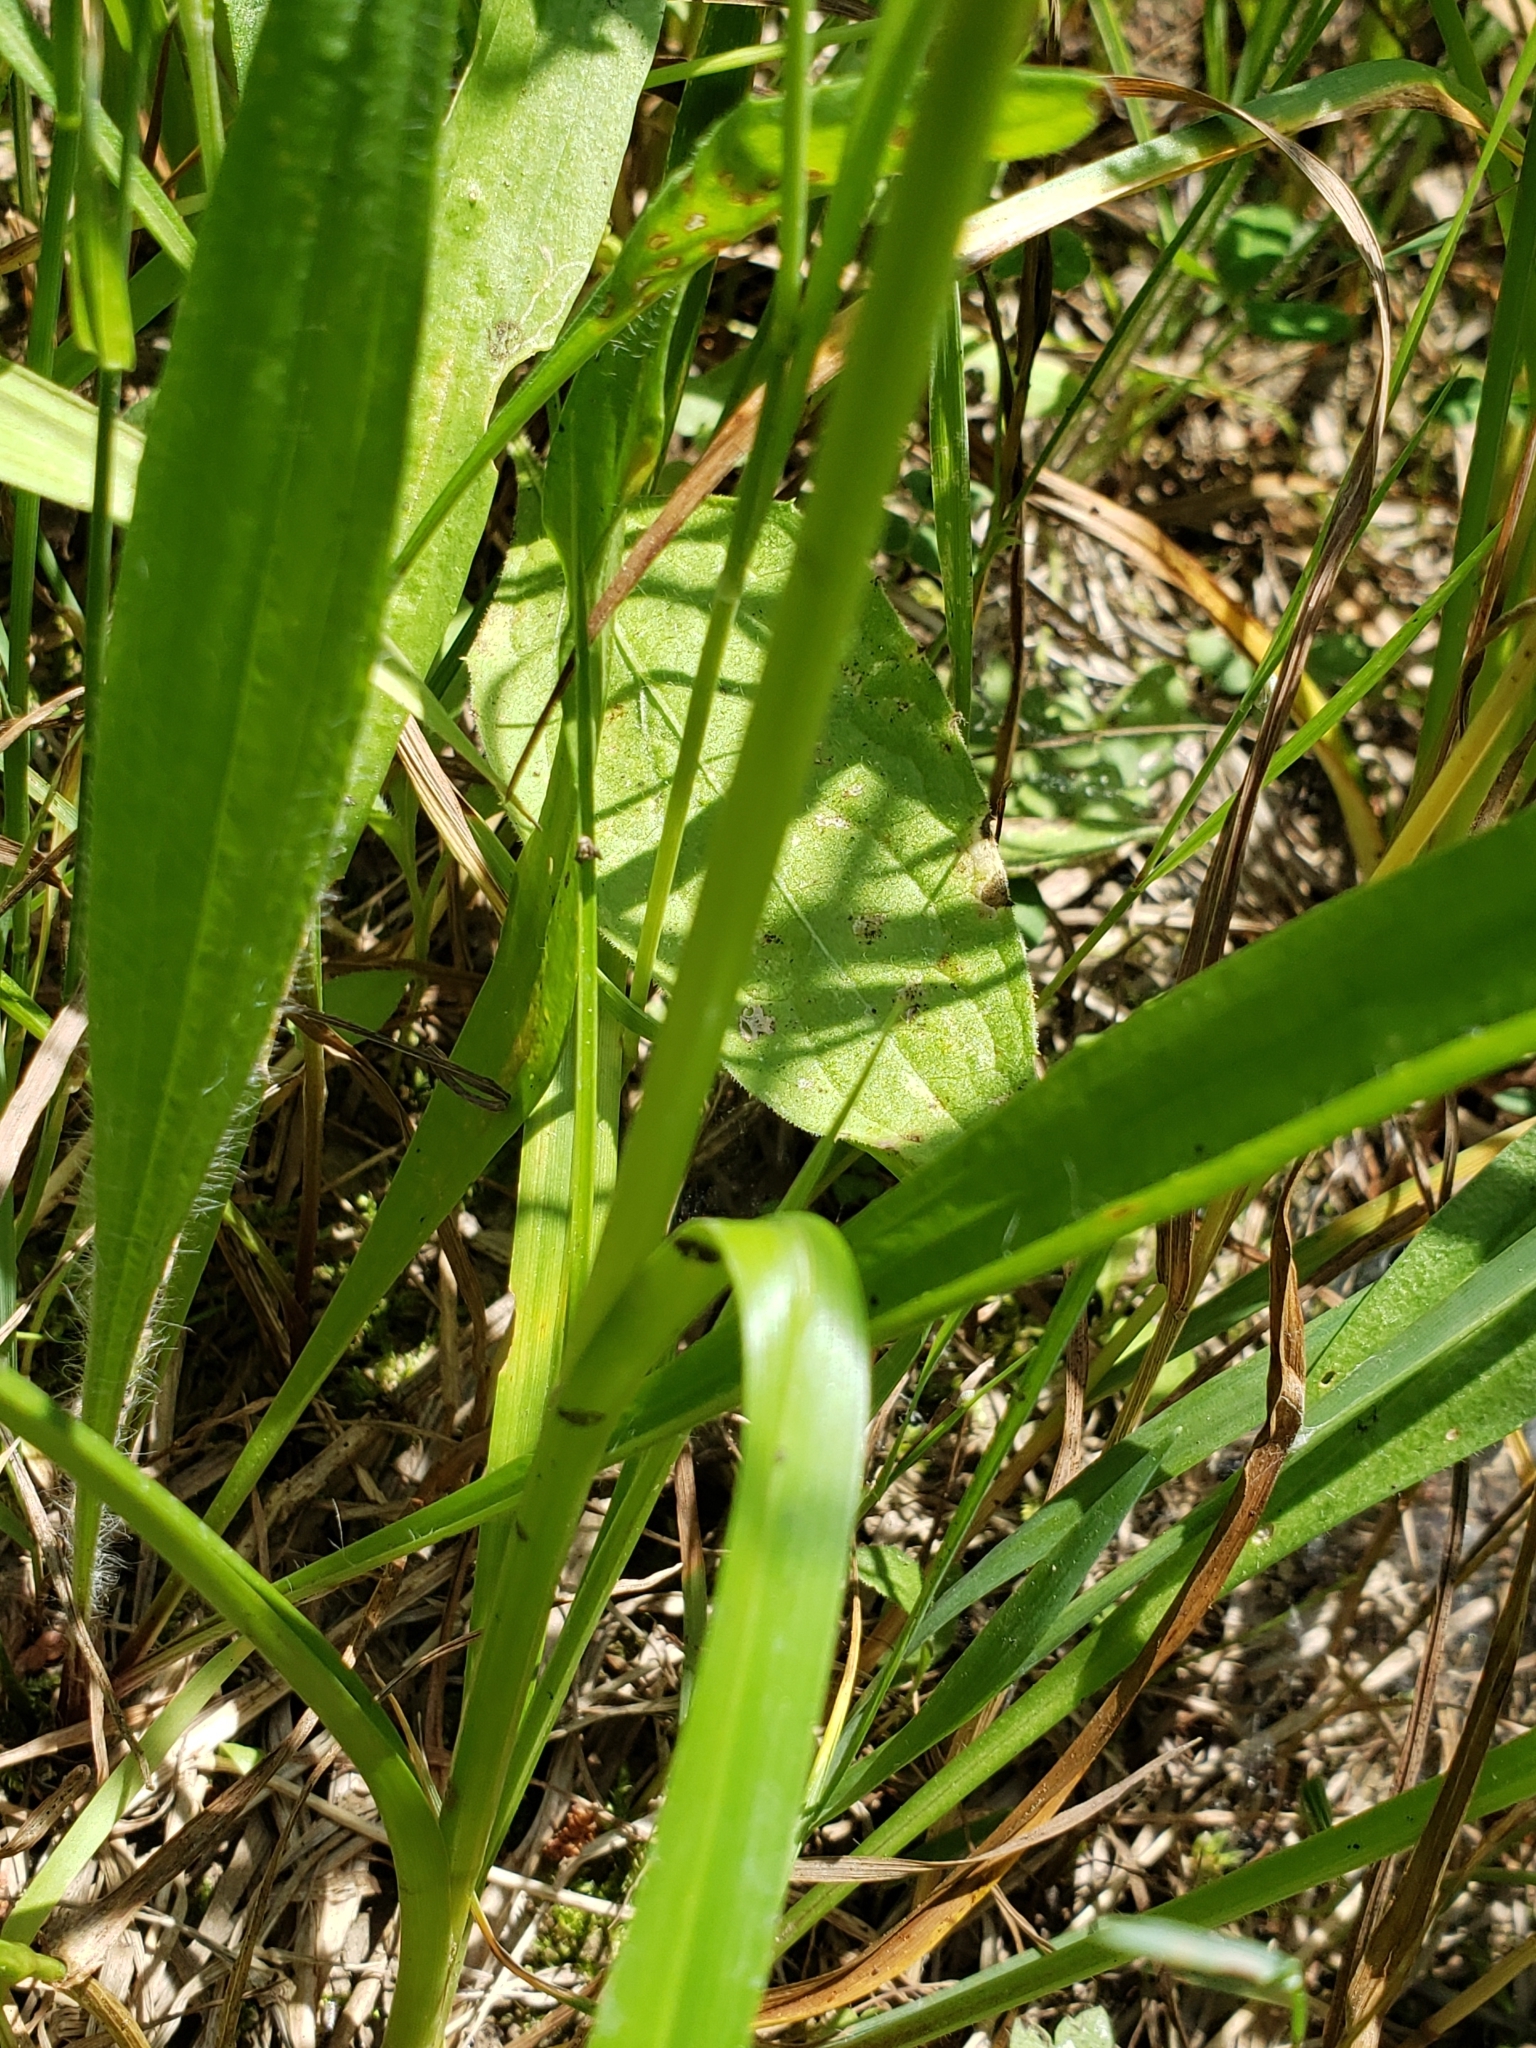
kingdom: Plantae
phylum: Tracheophyta
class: Liliopsida
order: Poales
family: Cyperaceae
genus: Scirpus
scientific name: Scirpus pendulus
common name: Nodding bulrush
